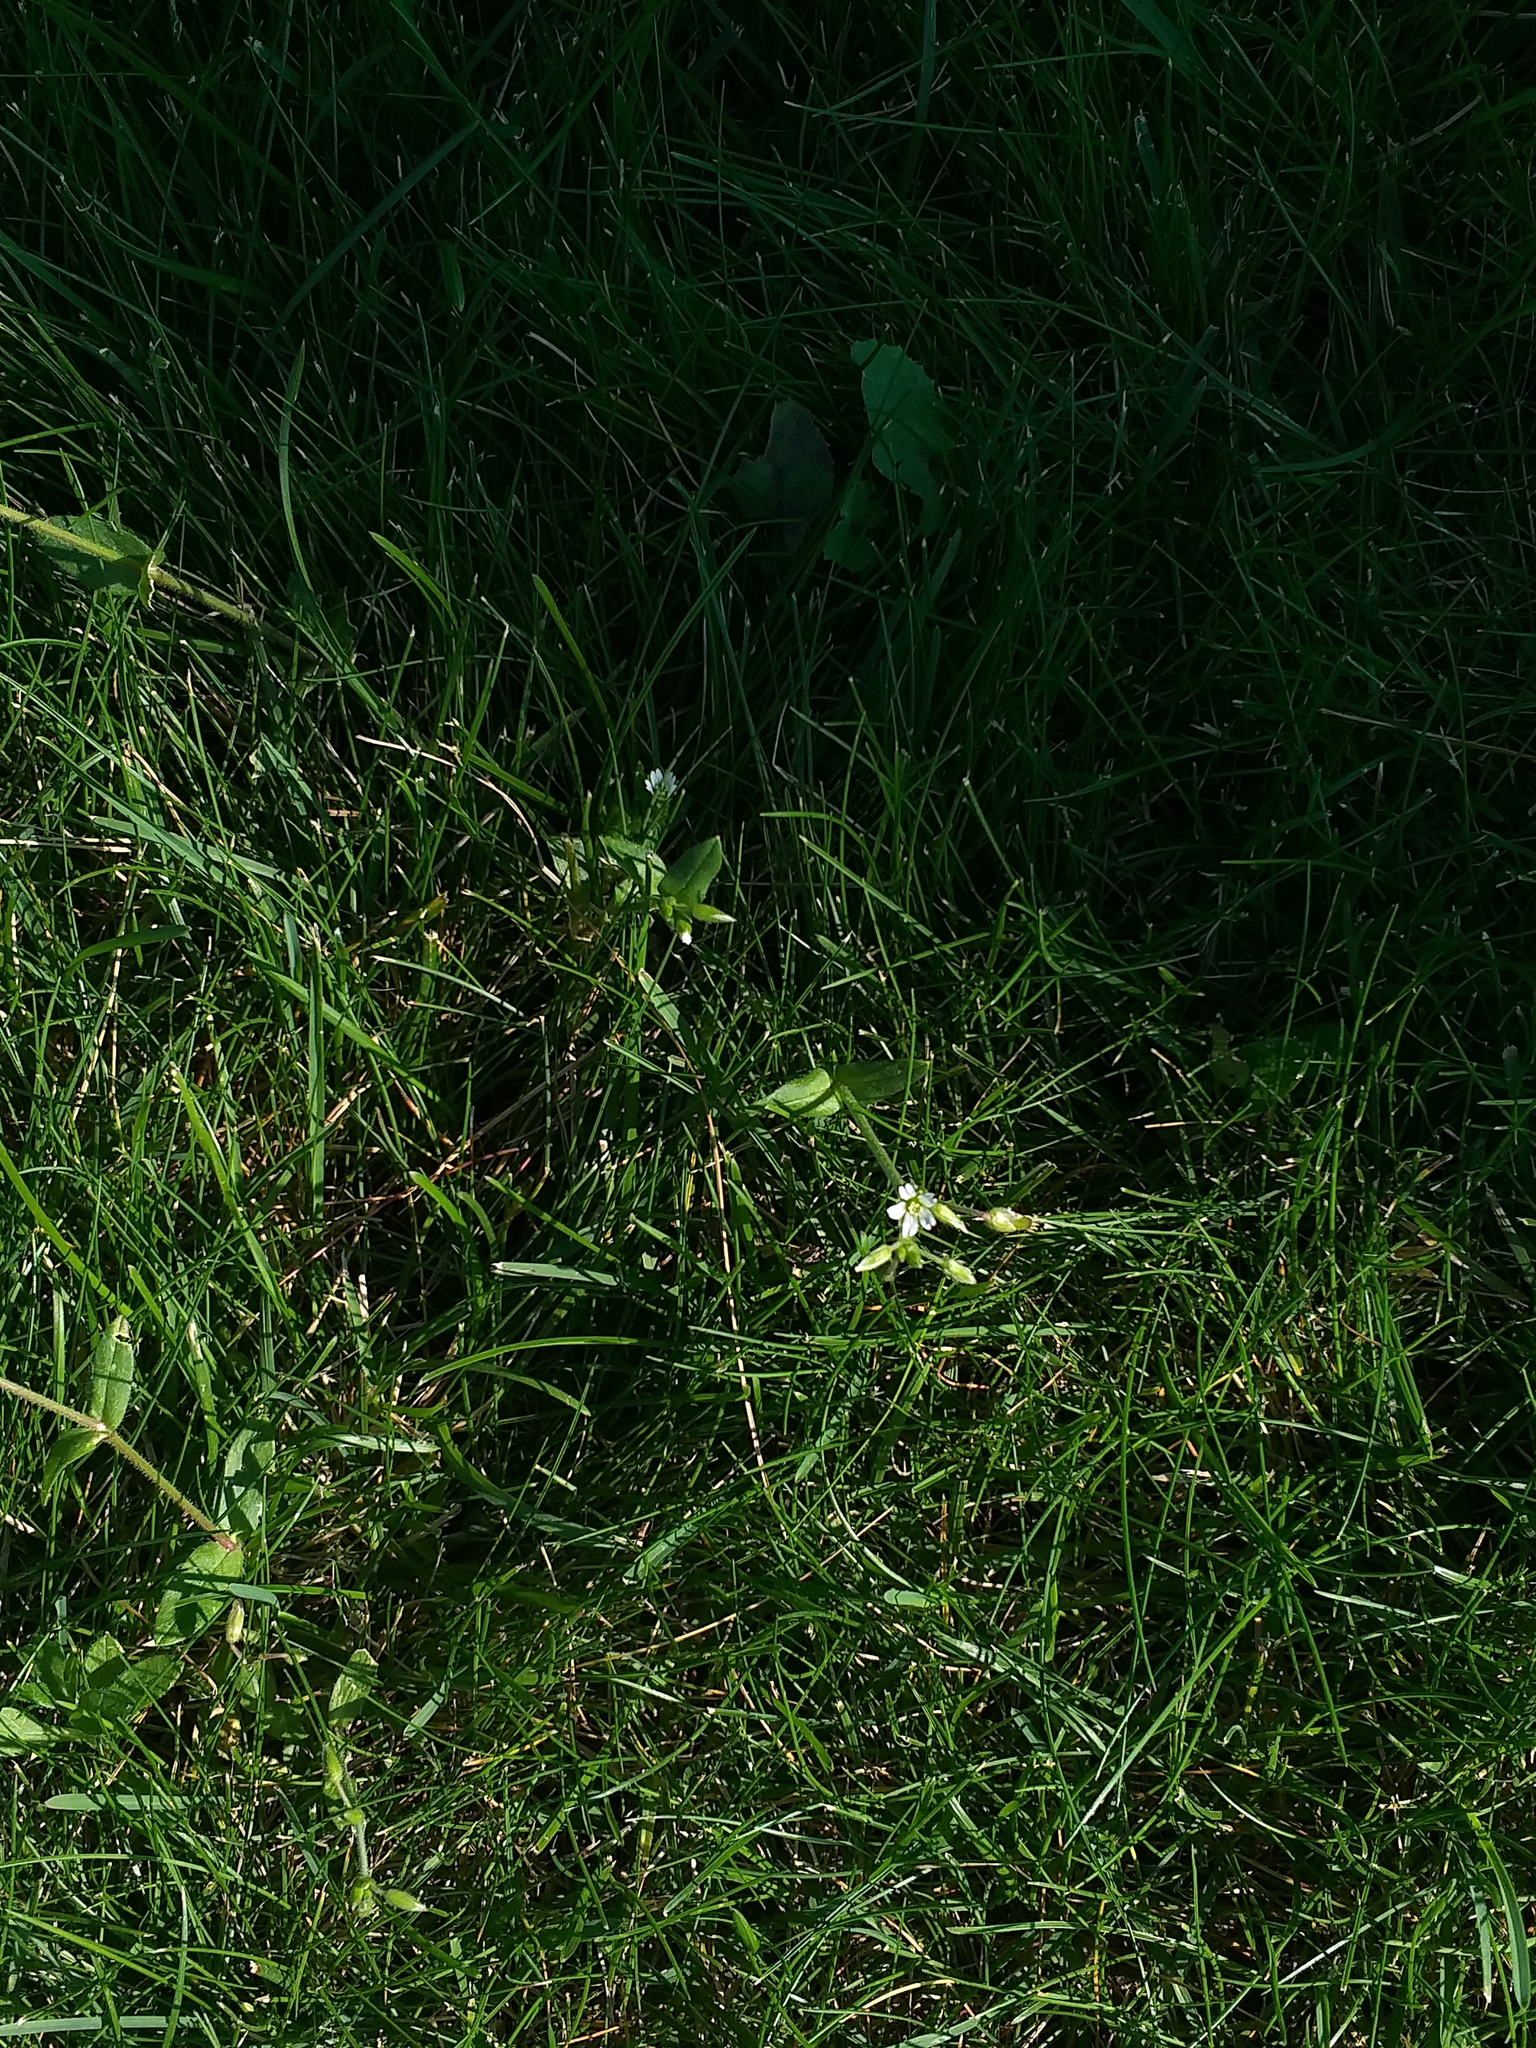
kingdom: Plantae
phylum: Tracheophyta
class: Magnoliopsida
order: Caryophyllales
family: Caryophyllaceae
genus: Cerastium
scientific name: Cerastium holosteoides
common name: Big chickweed
